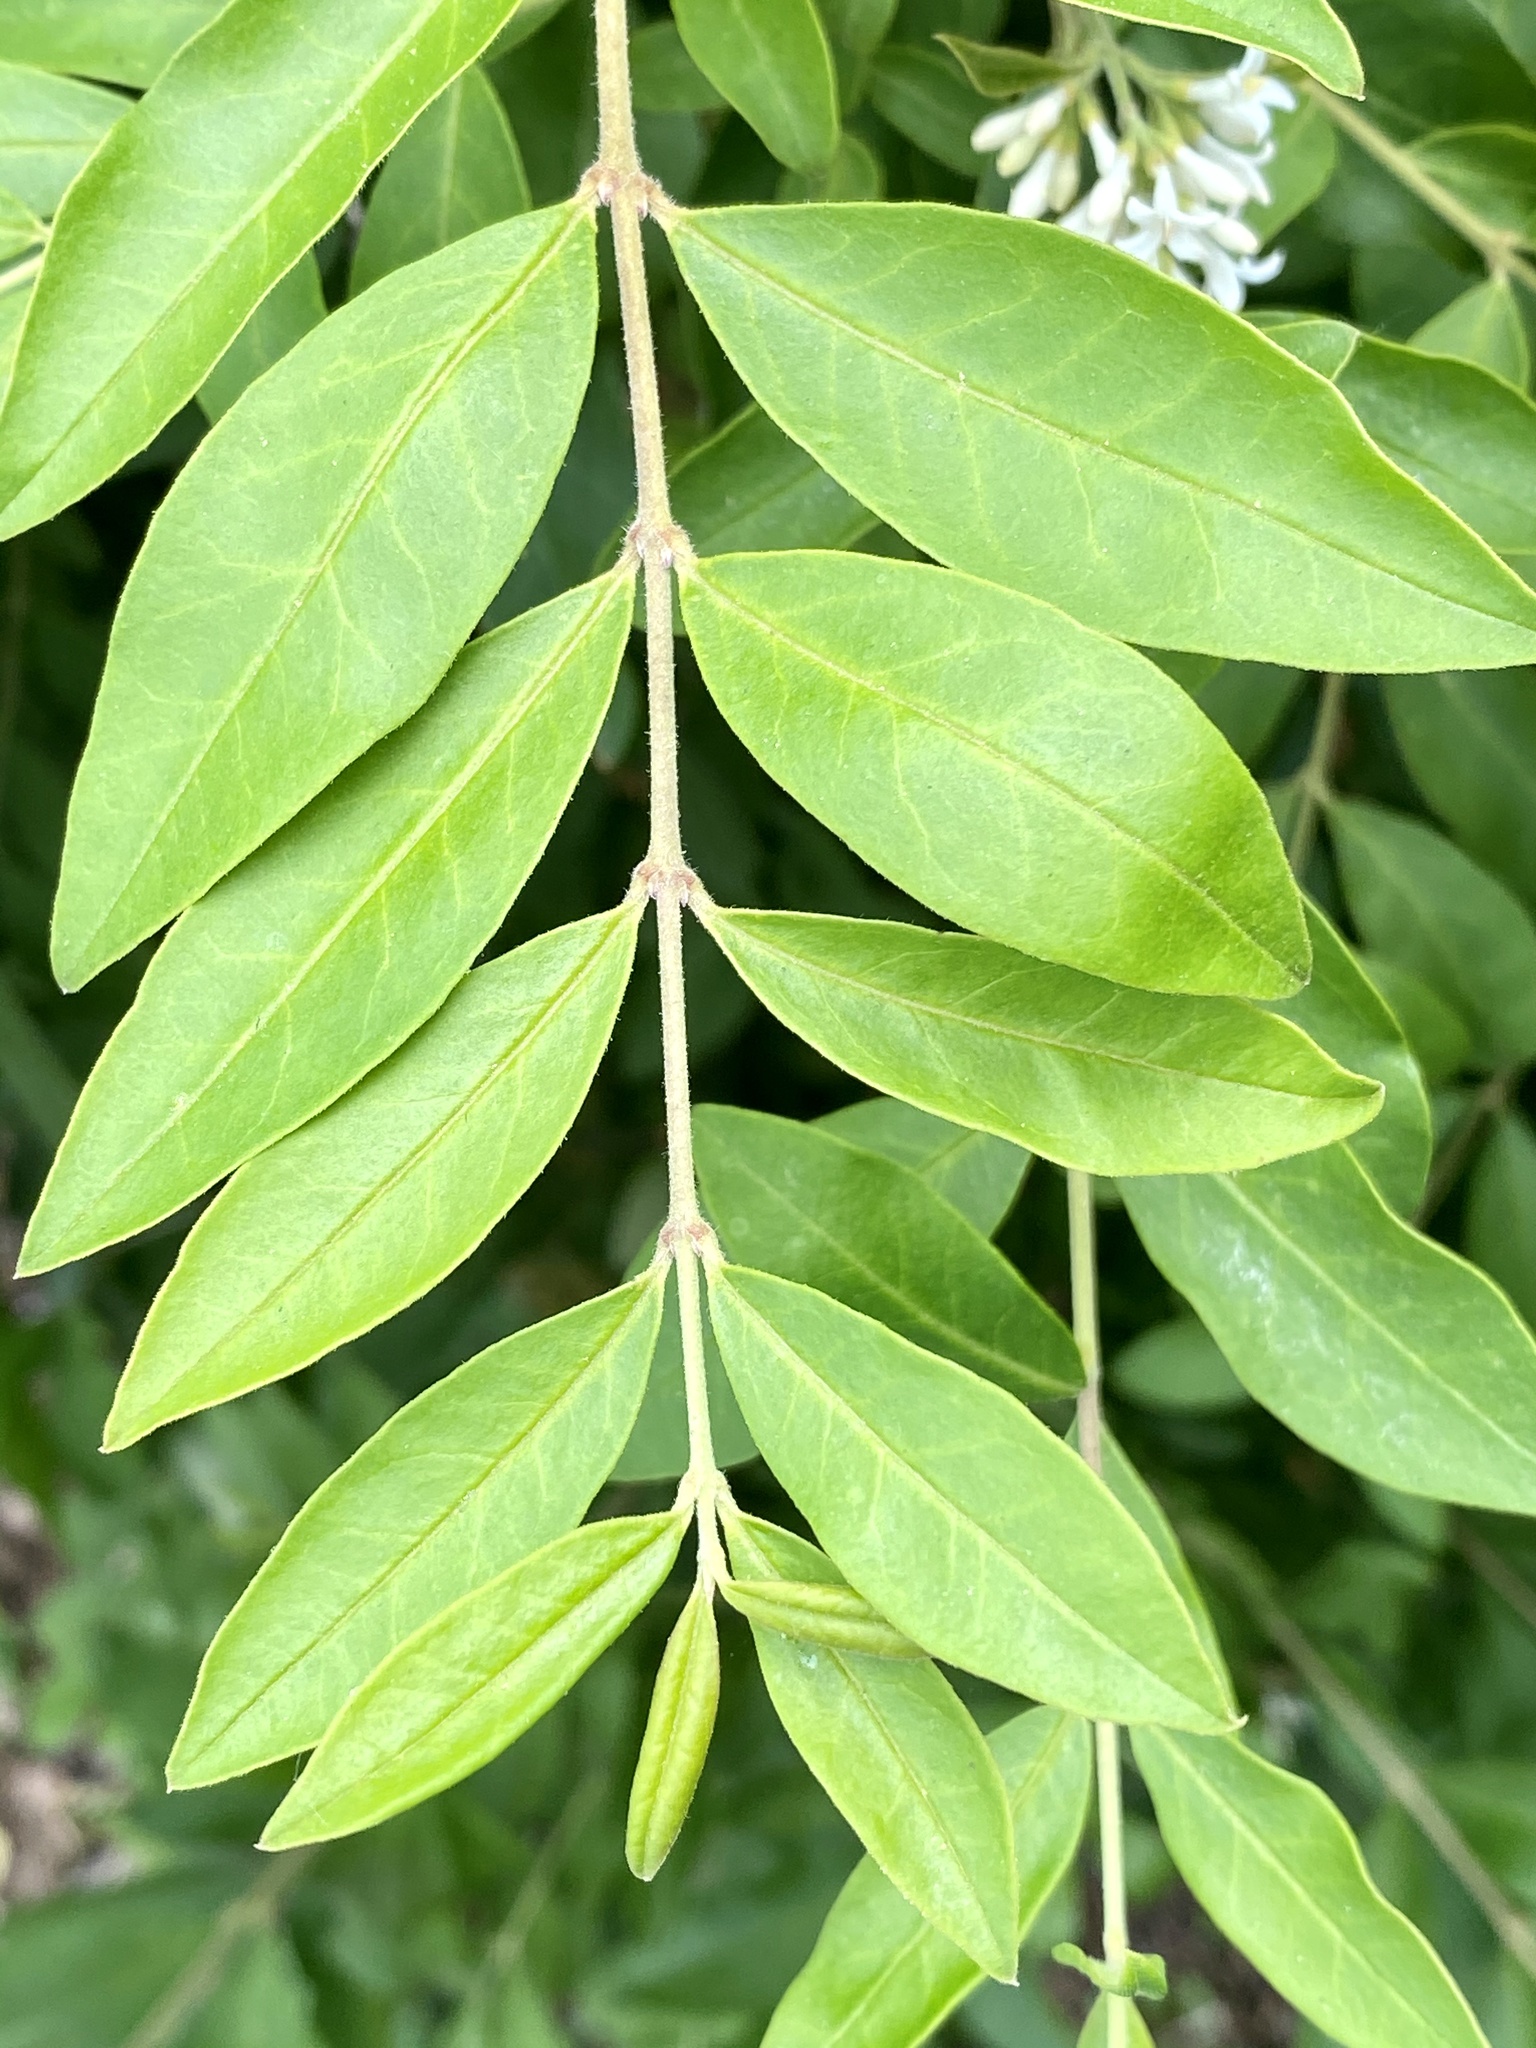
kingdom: Plantae
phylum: Tracheophyta
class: Magnoliopsida
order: Lamiales
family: Oleaceae
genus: Ligustrum
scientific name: Ligustrum obtusifolium
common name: Border privet
